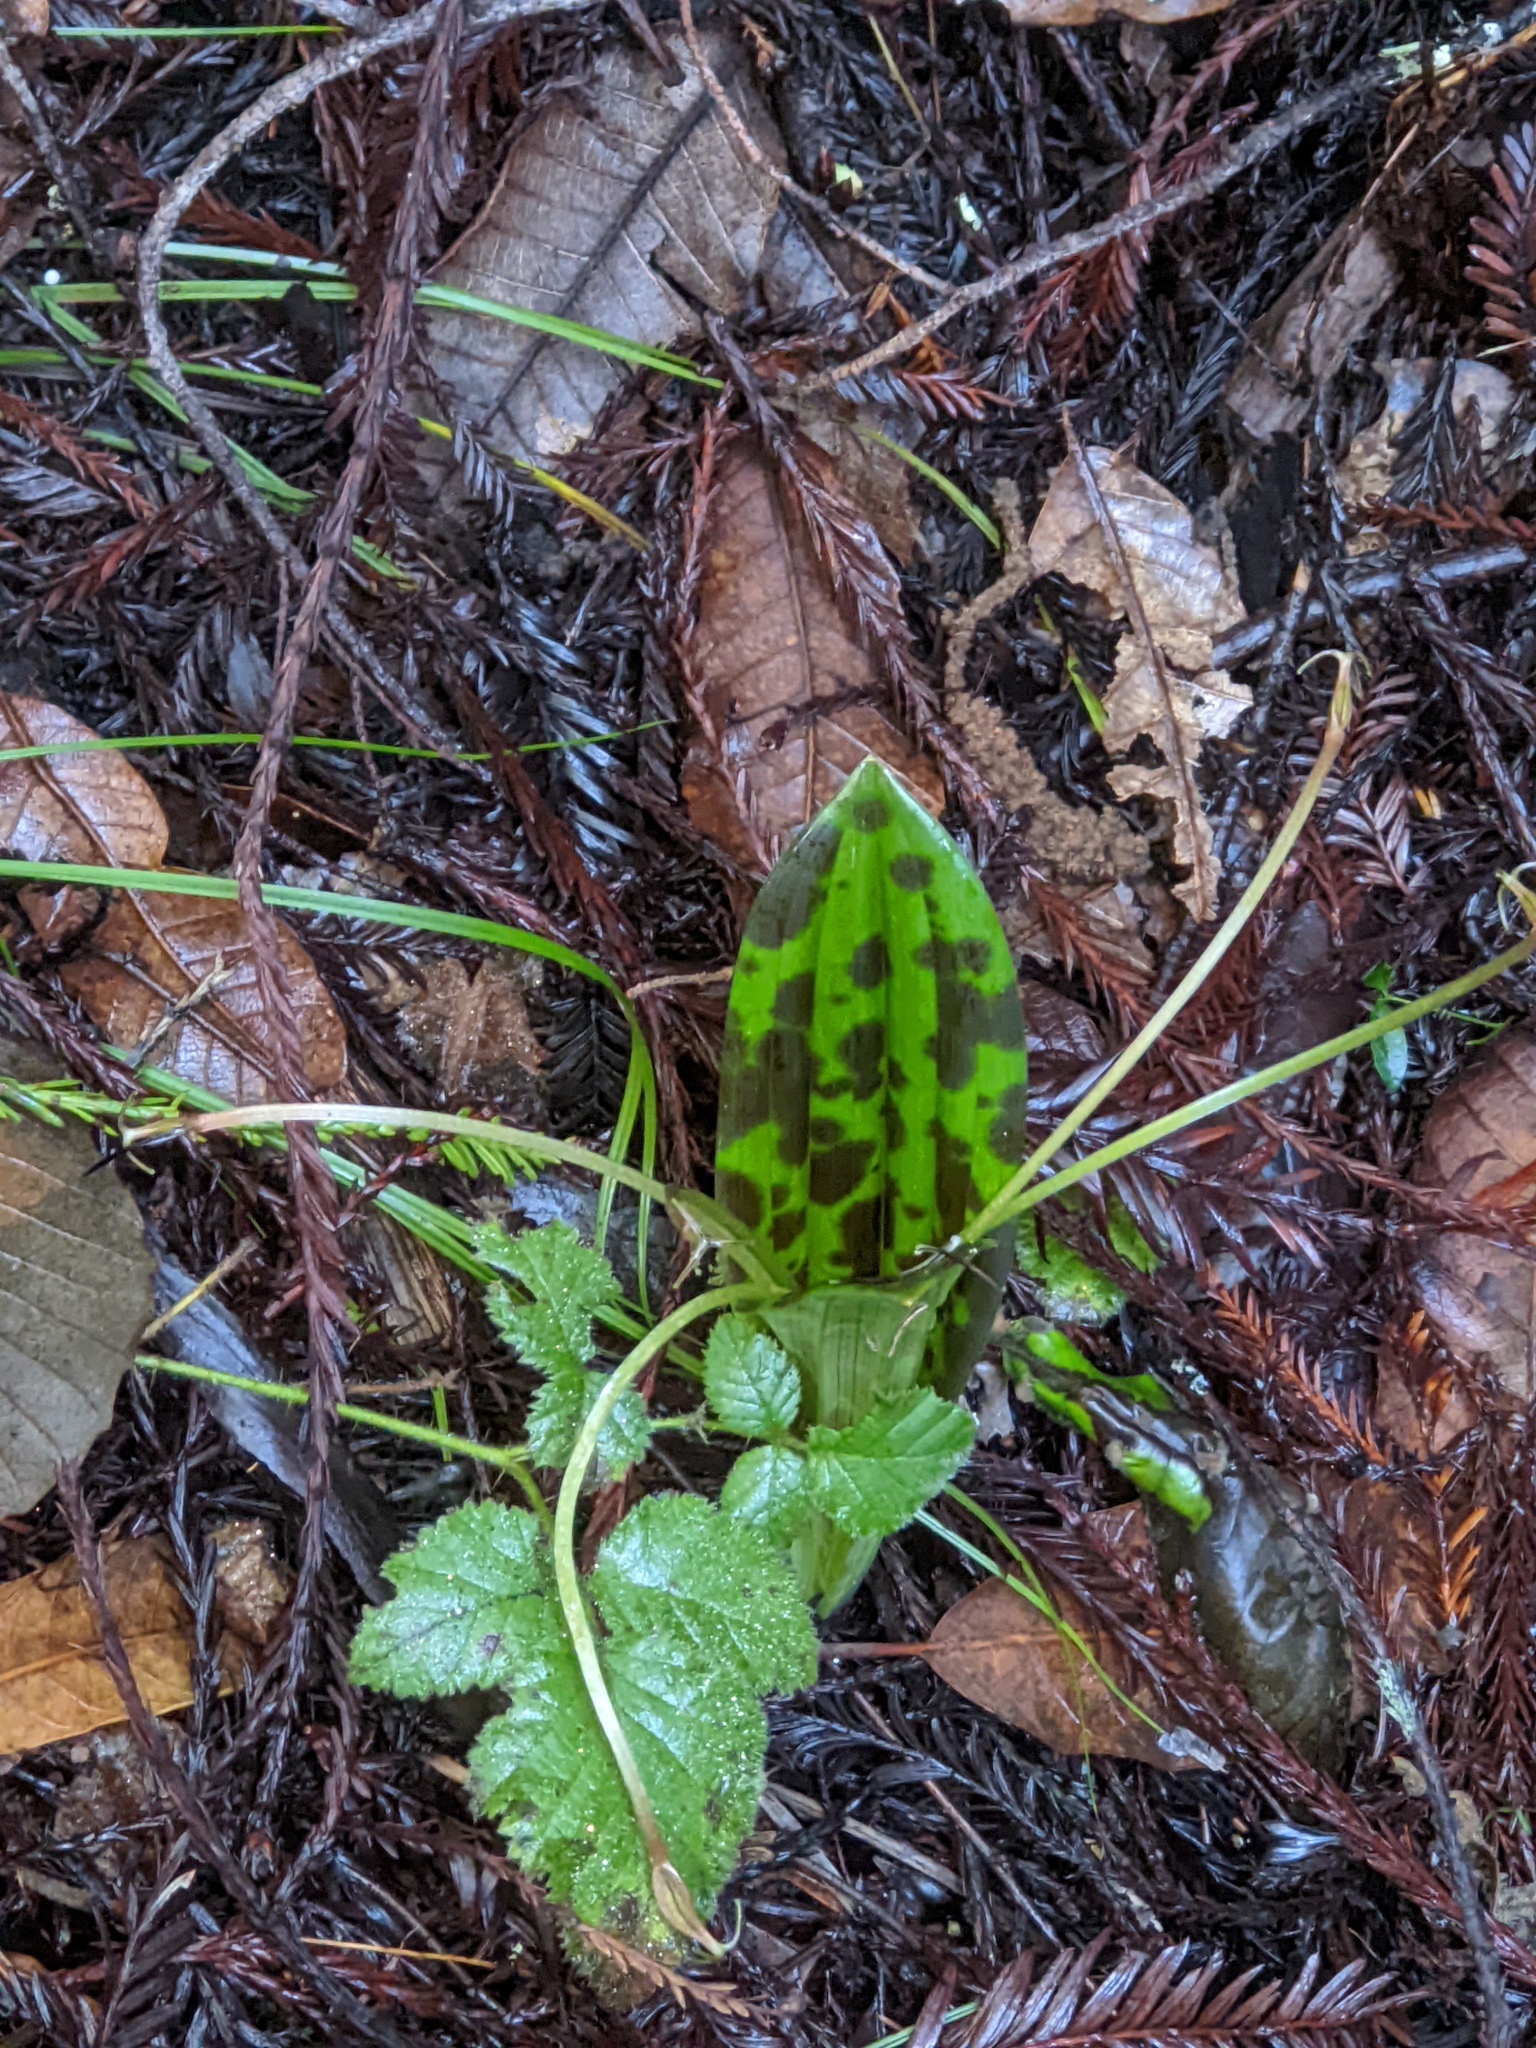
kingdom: Plantae
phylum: Tracheophyta
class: Liliopsida
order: Liliales
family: Liliaceae
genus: Scoliopus
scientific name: Scoliopus bigelovii
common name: Foetid adder's-tongue
